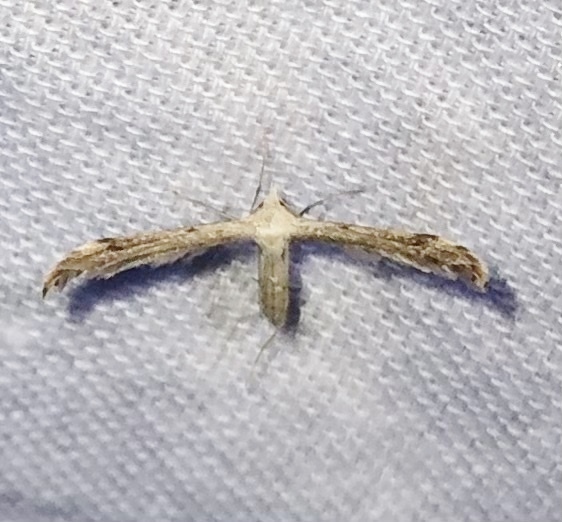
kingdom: Animalia
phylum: Arthropoda
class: Insecta
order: Lepidoptera
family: Pterophoridae
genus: Lioptilodes
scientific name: Lioptilodes albistriolatus
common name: Moth
